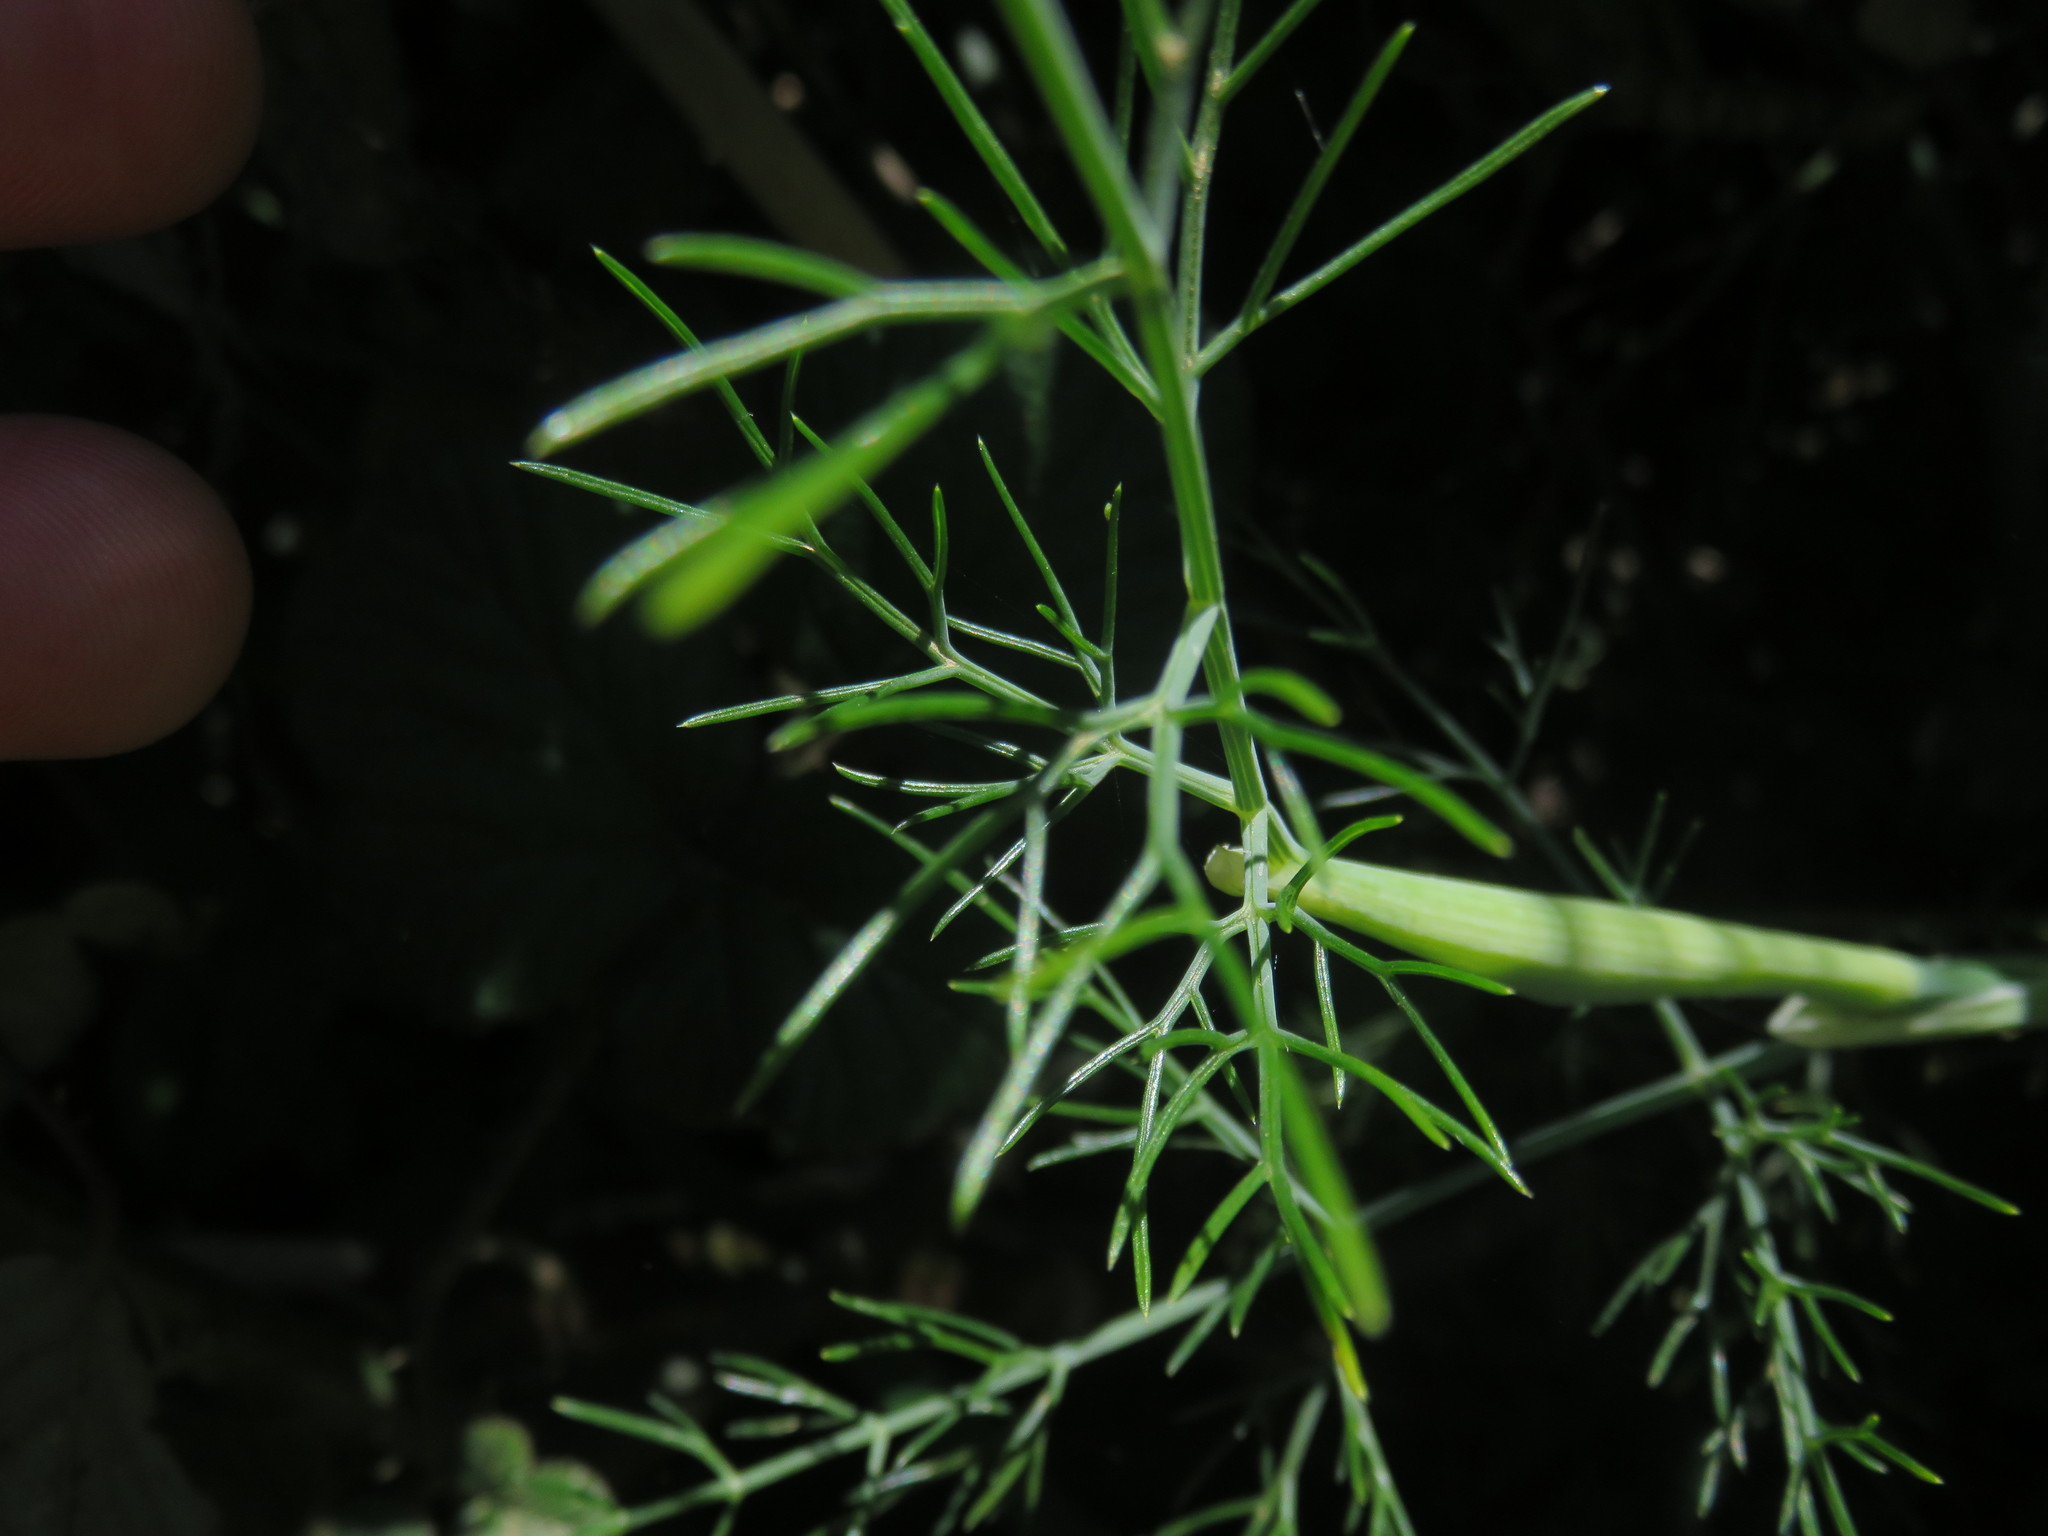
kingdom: Plantae
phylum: Tracheophyta
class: Magnoliopsida
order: Apiales
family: Apiaceae
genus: Foeniculum
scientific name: Foeniculum vulgare
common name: Fennel
